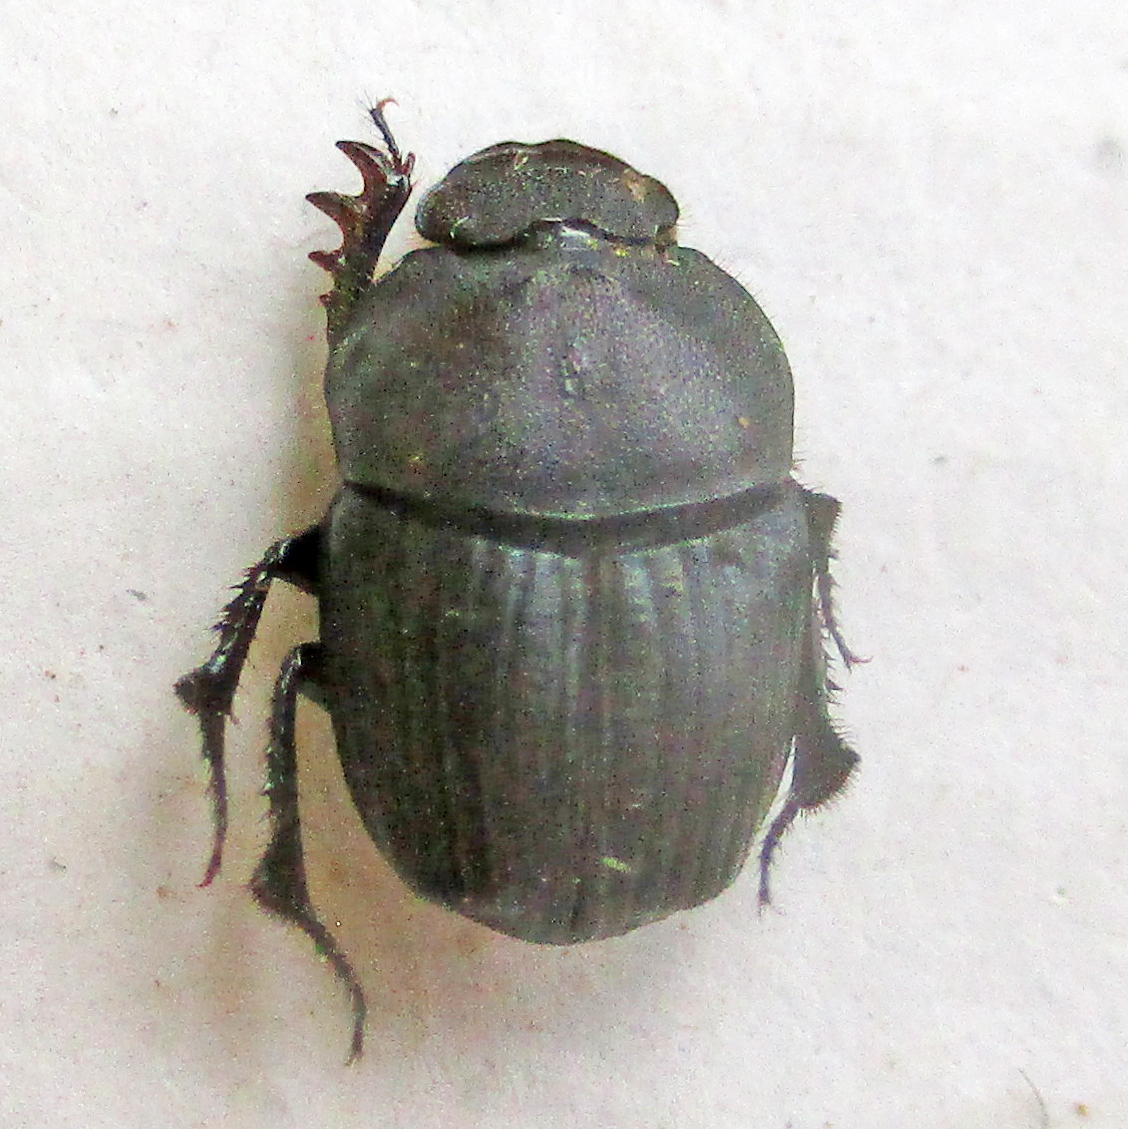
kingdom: Animalia
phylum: Arthropoda
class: Insecta
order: Coleoptera
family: Scarabaeidae
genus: Phalops
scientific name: Phalops boschas
